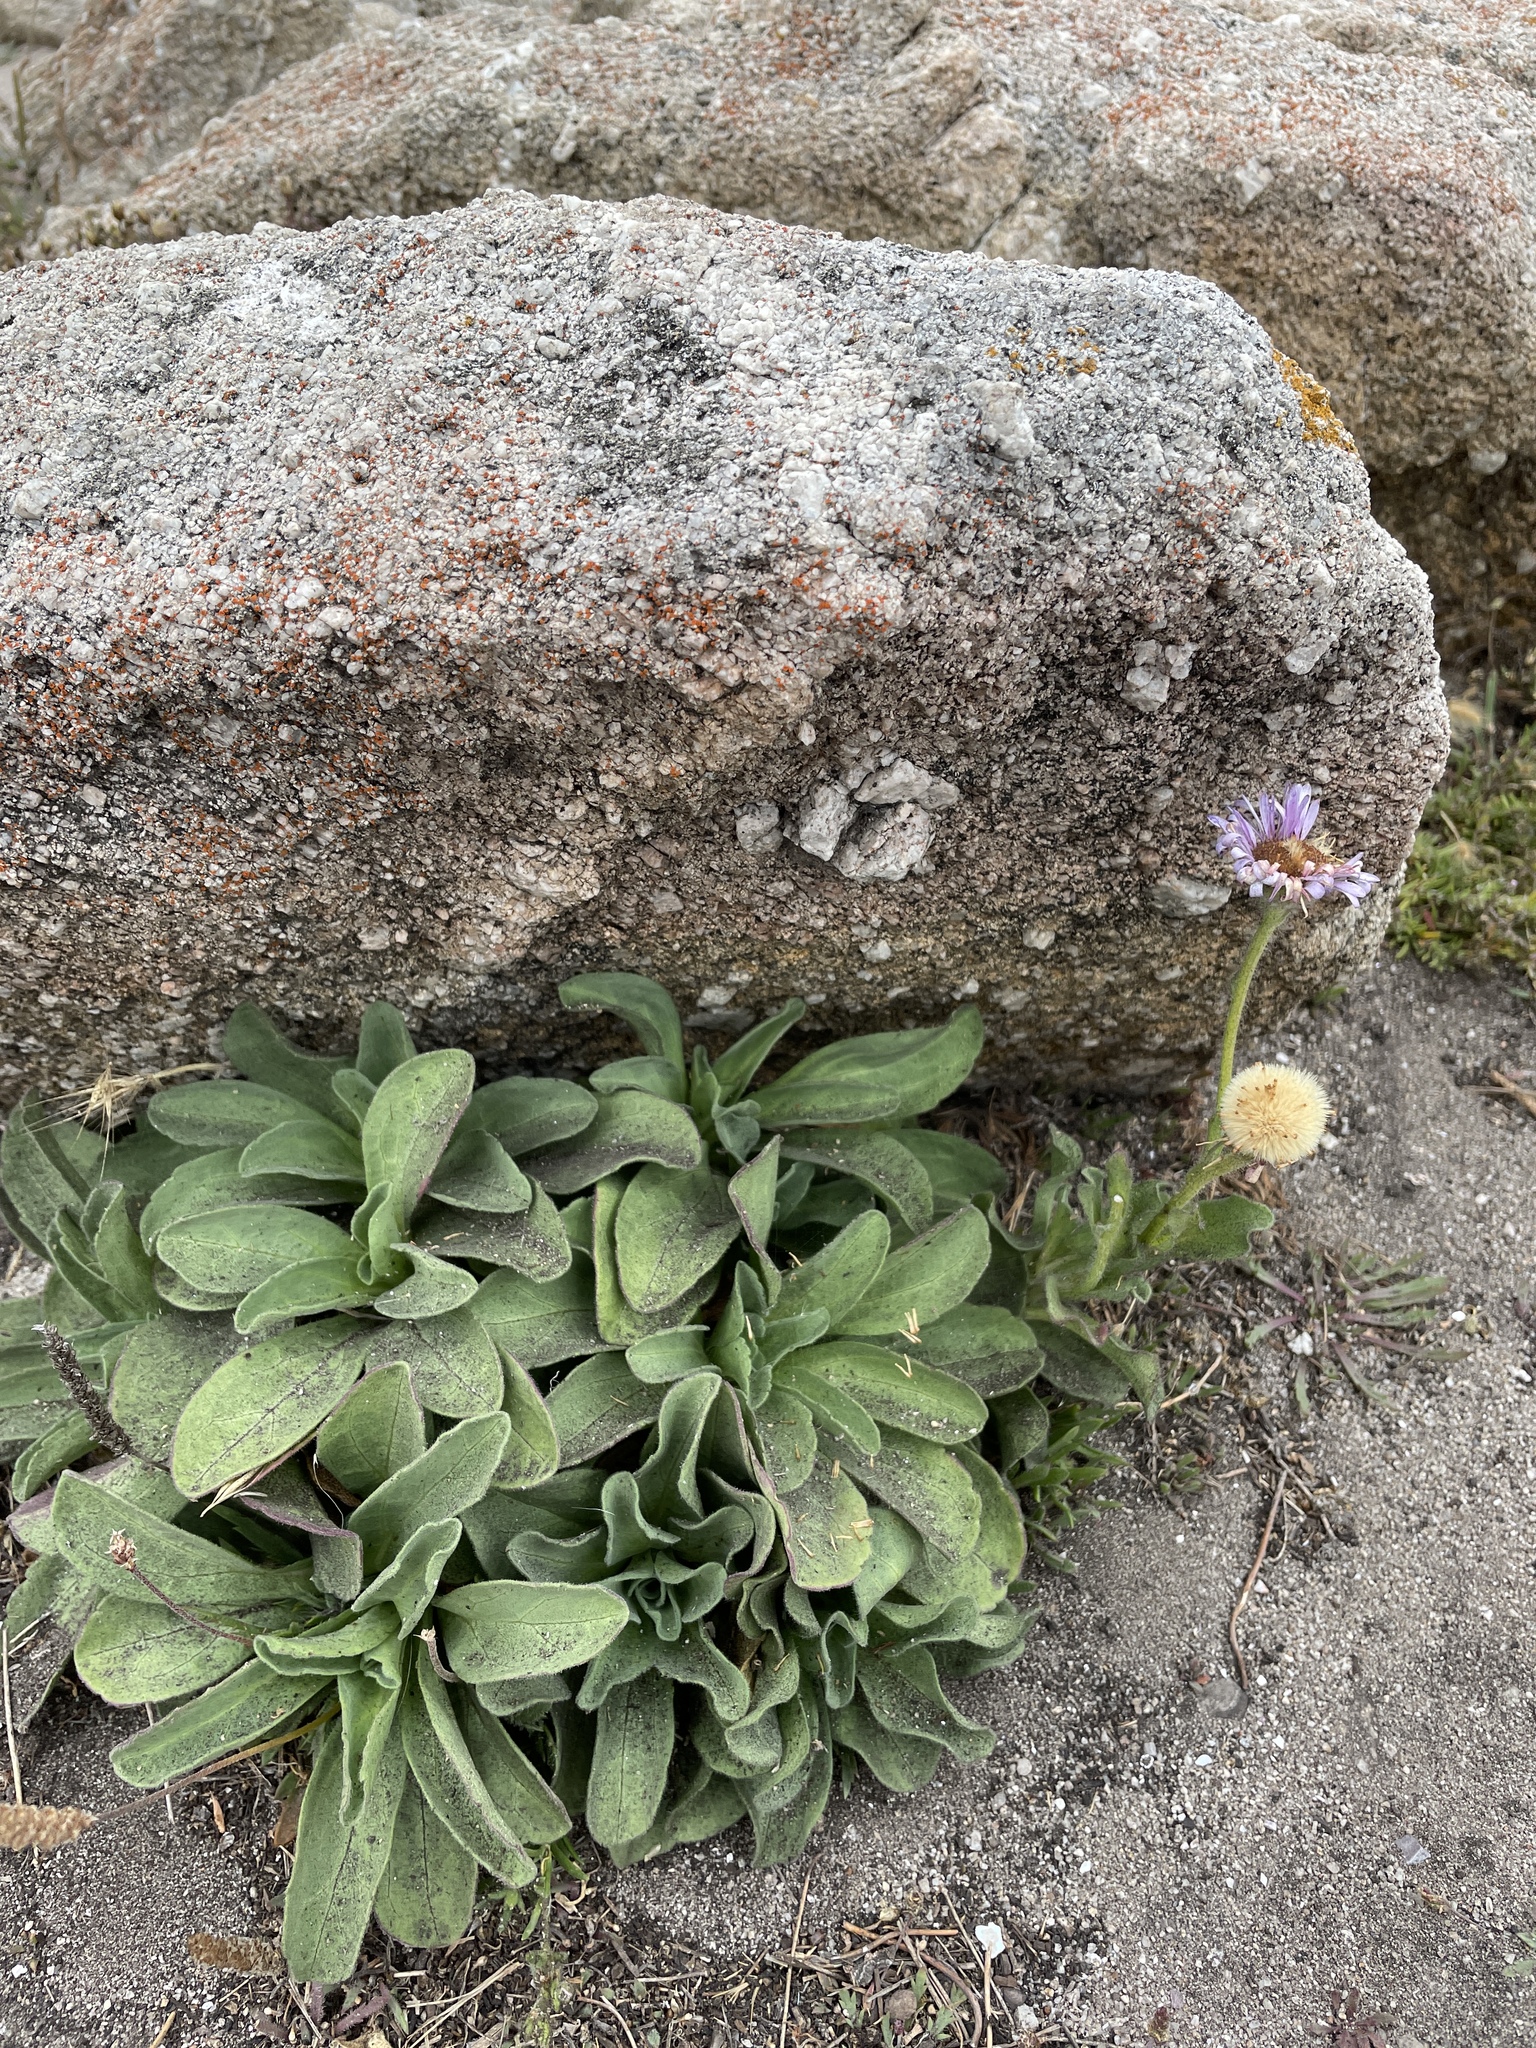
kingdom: Plantae
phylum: Tracheophyta
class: Magnoliopsida
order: Asterales
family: Asteraceae
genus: Erigeron
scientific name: Erigeron glaucus
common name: Seaside daisy
